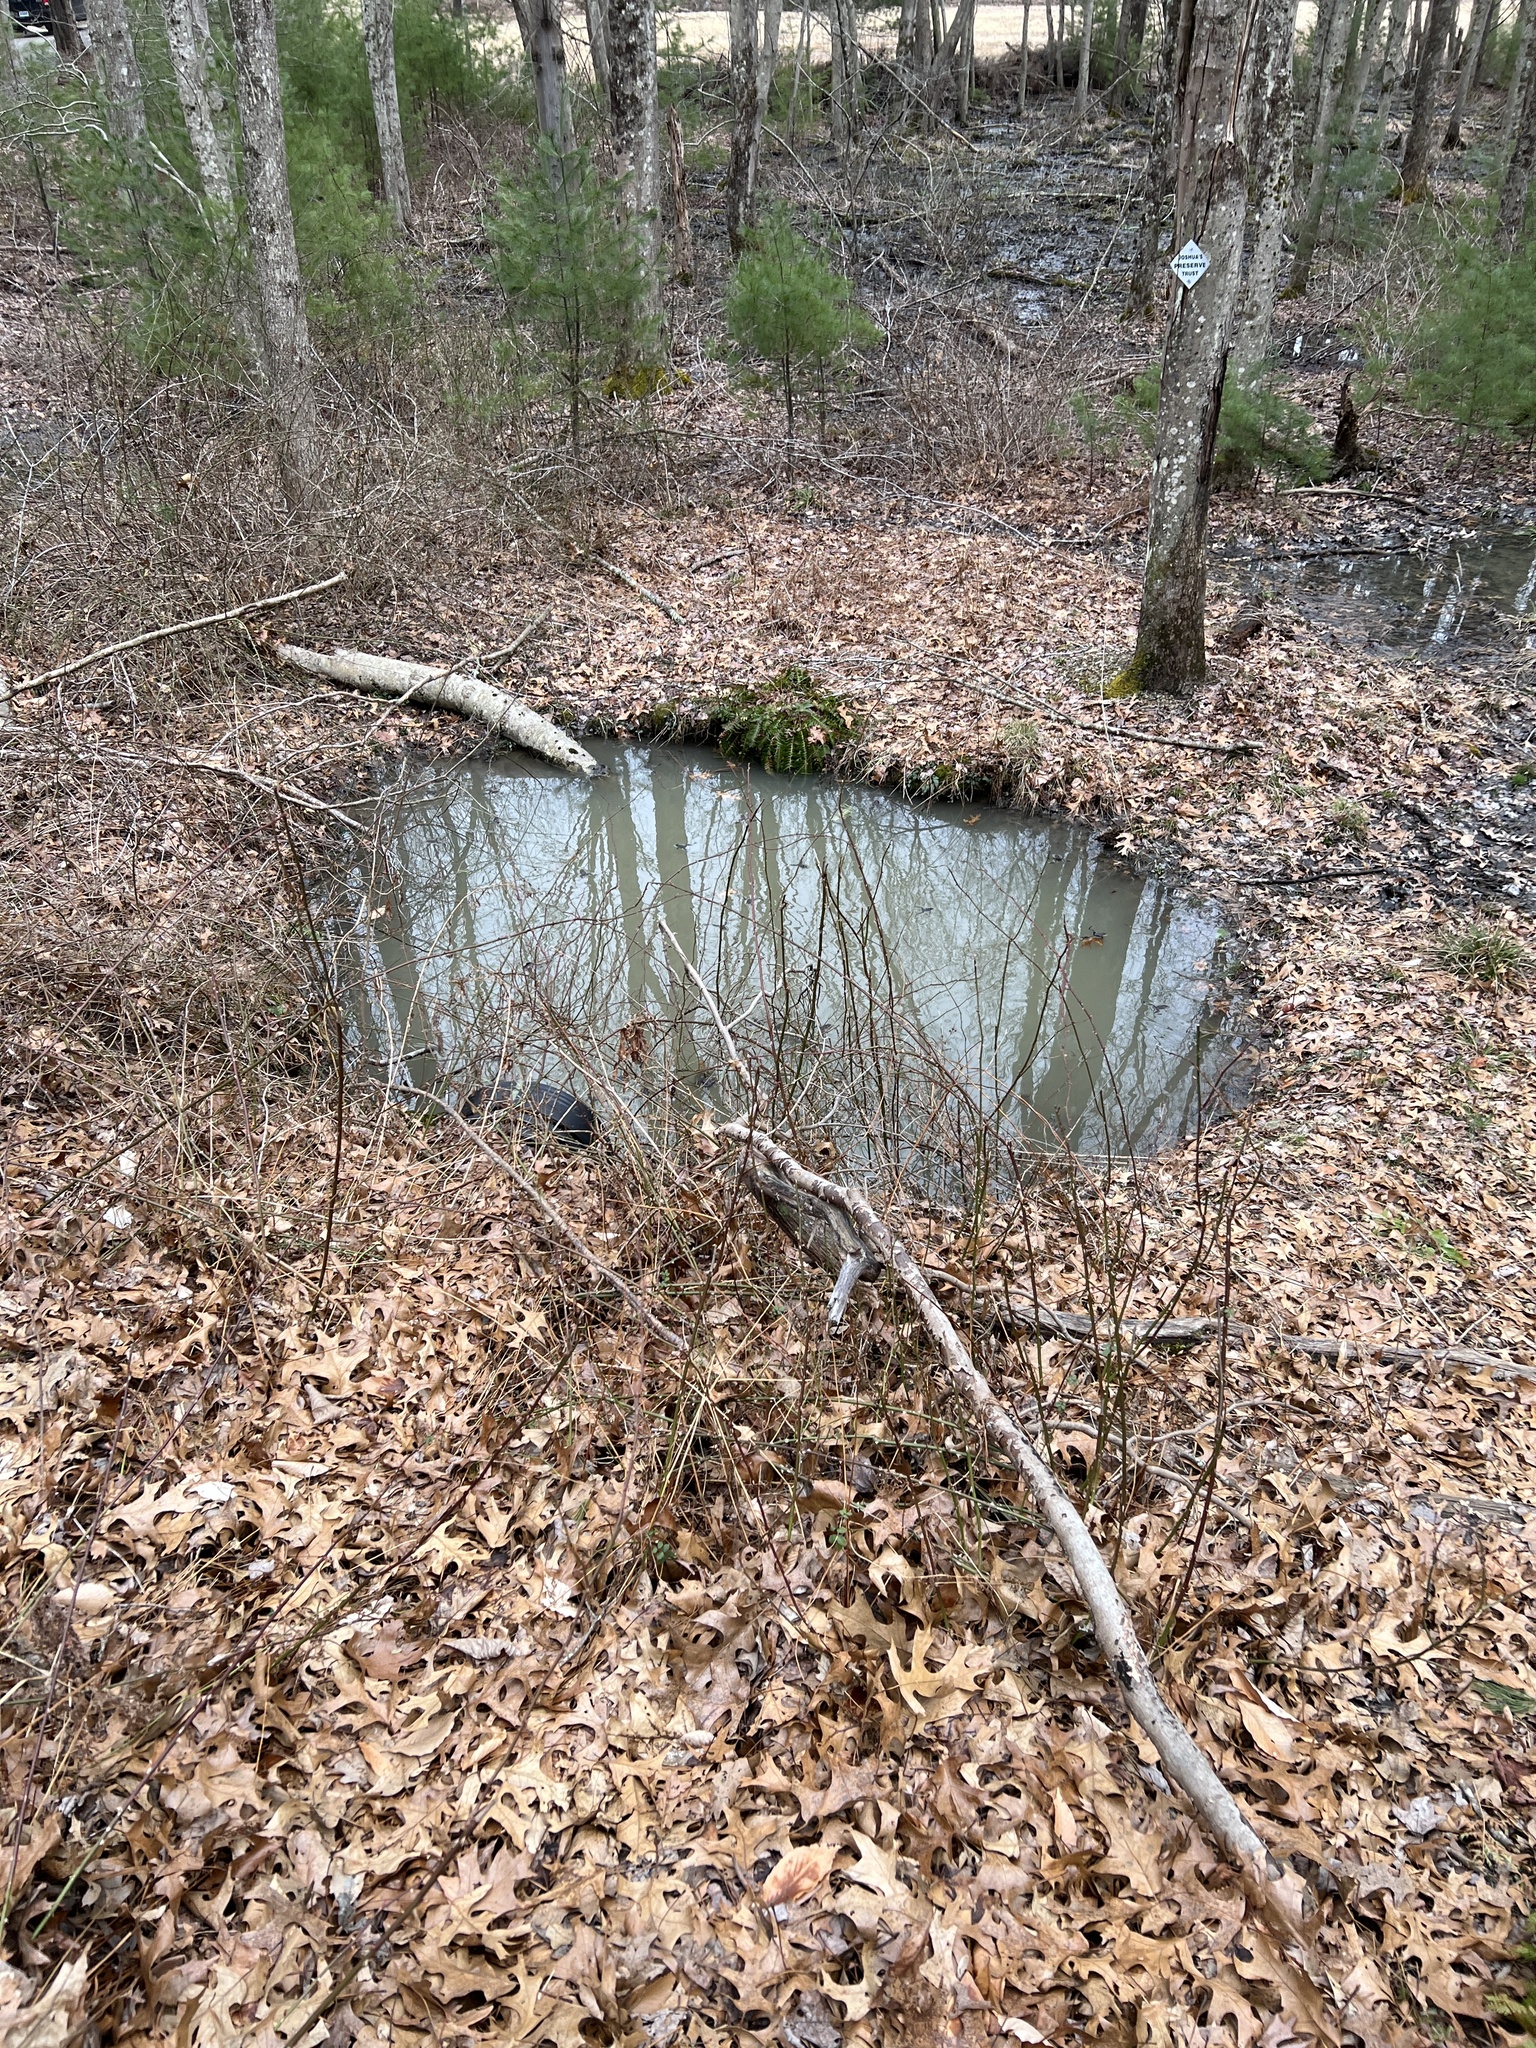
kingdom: Animalia
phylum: Chordata
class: Amphibia
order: Anura
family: Ranidae
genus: Lithobates
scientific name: Lithobates sylvaticus
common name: Wood frog
